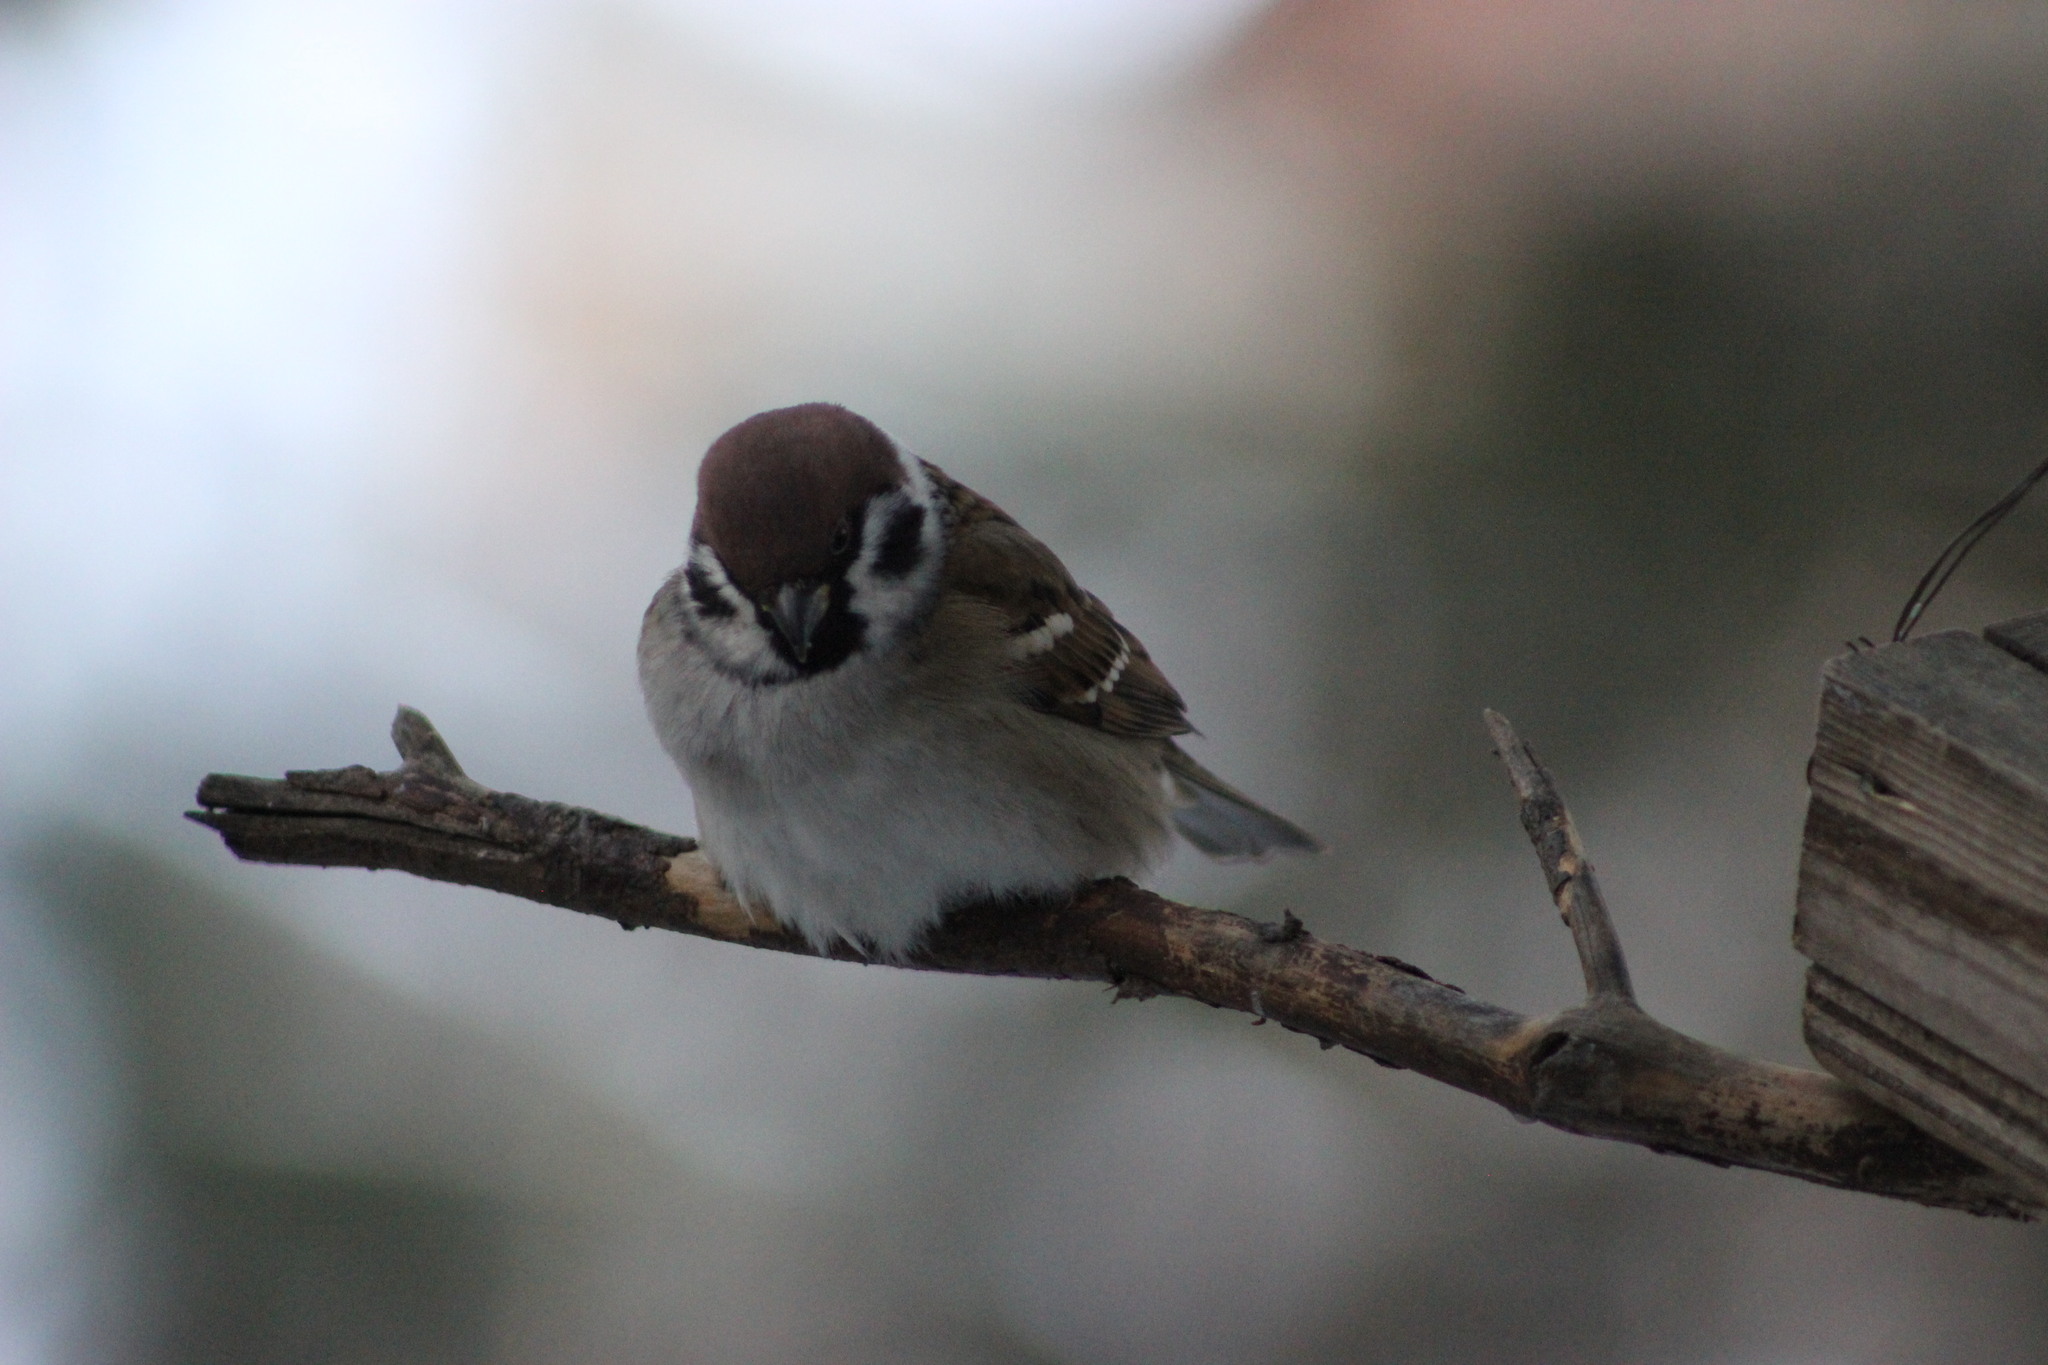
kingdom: Animalia
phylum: Chordata
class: Aves
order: Passeriformes
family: Passeridae
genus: Passer
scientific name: Passer montanus
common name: Eurasian tree sparrow
